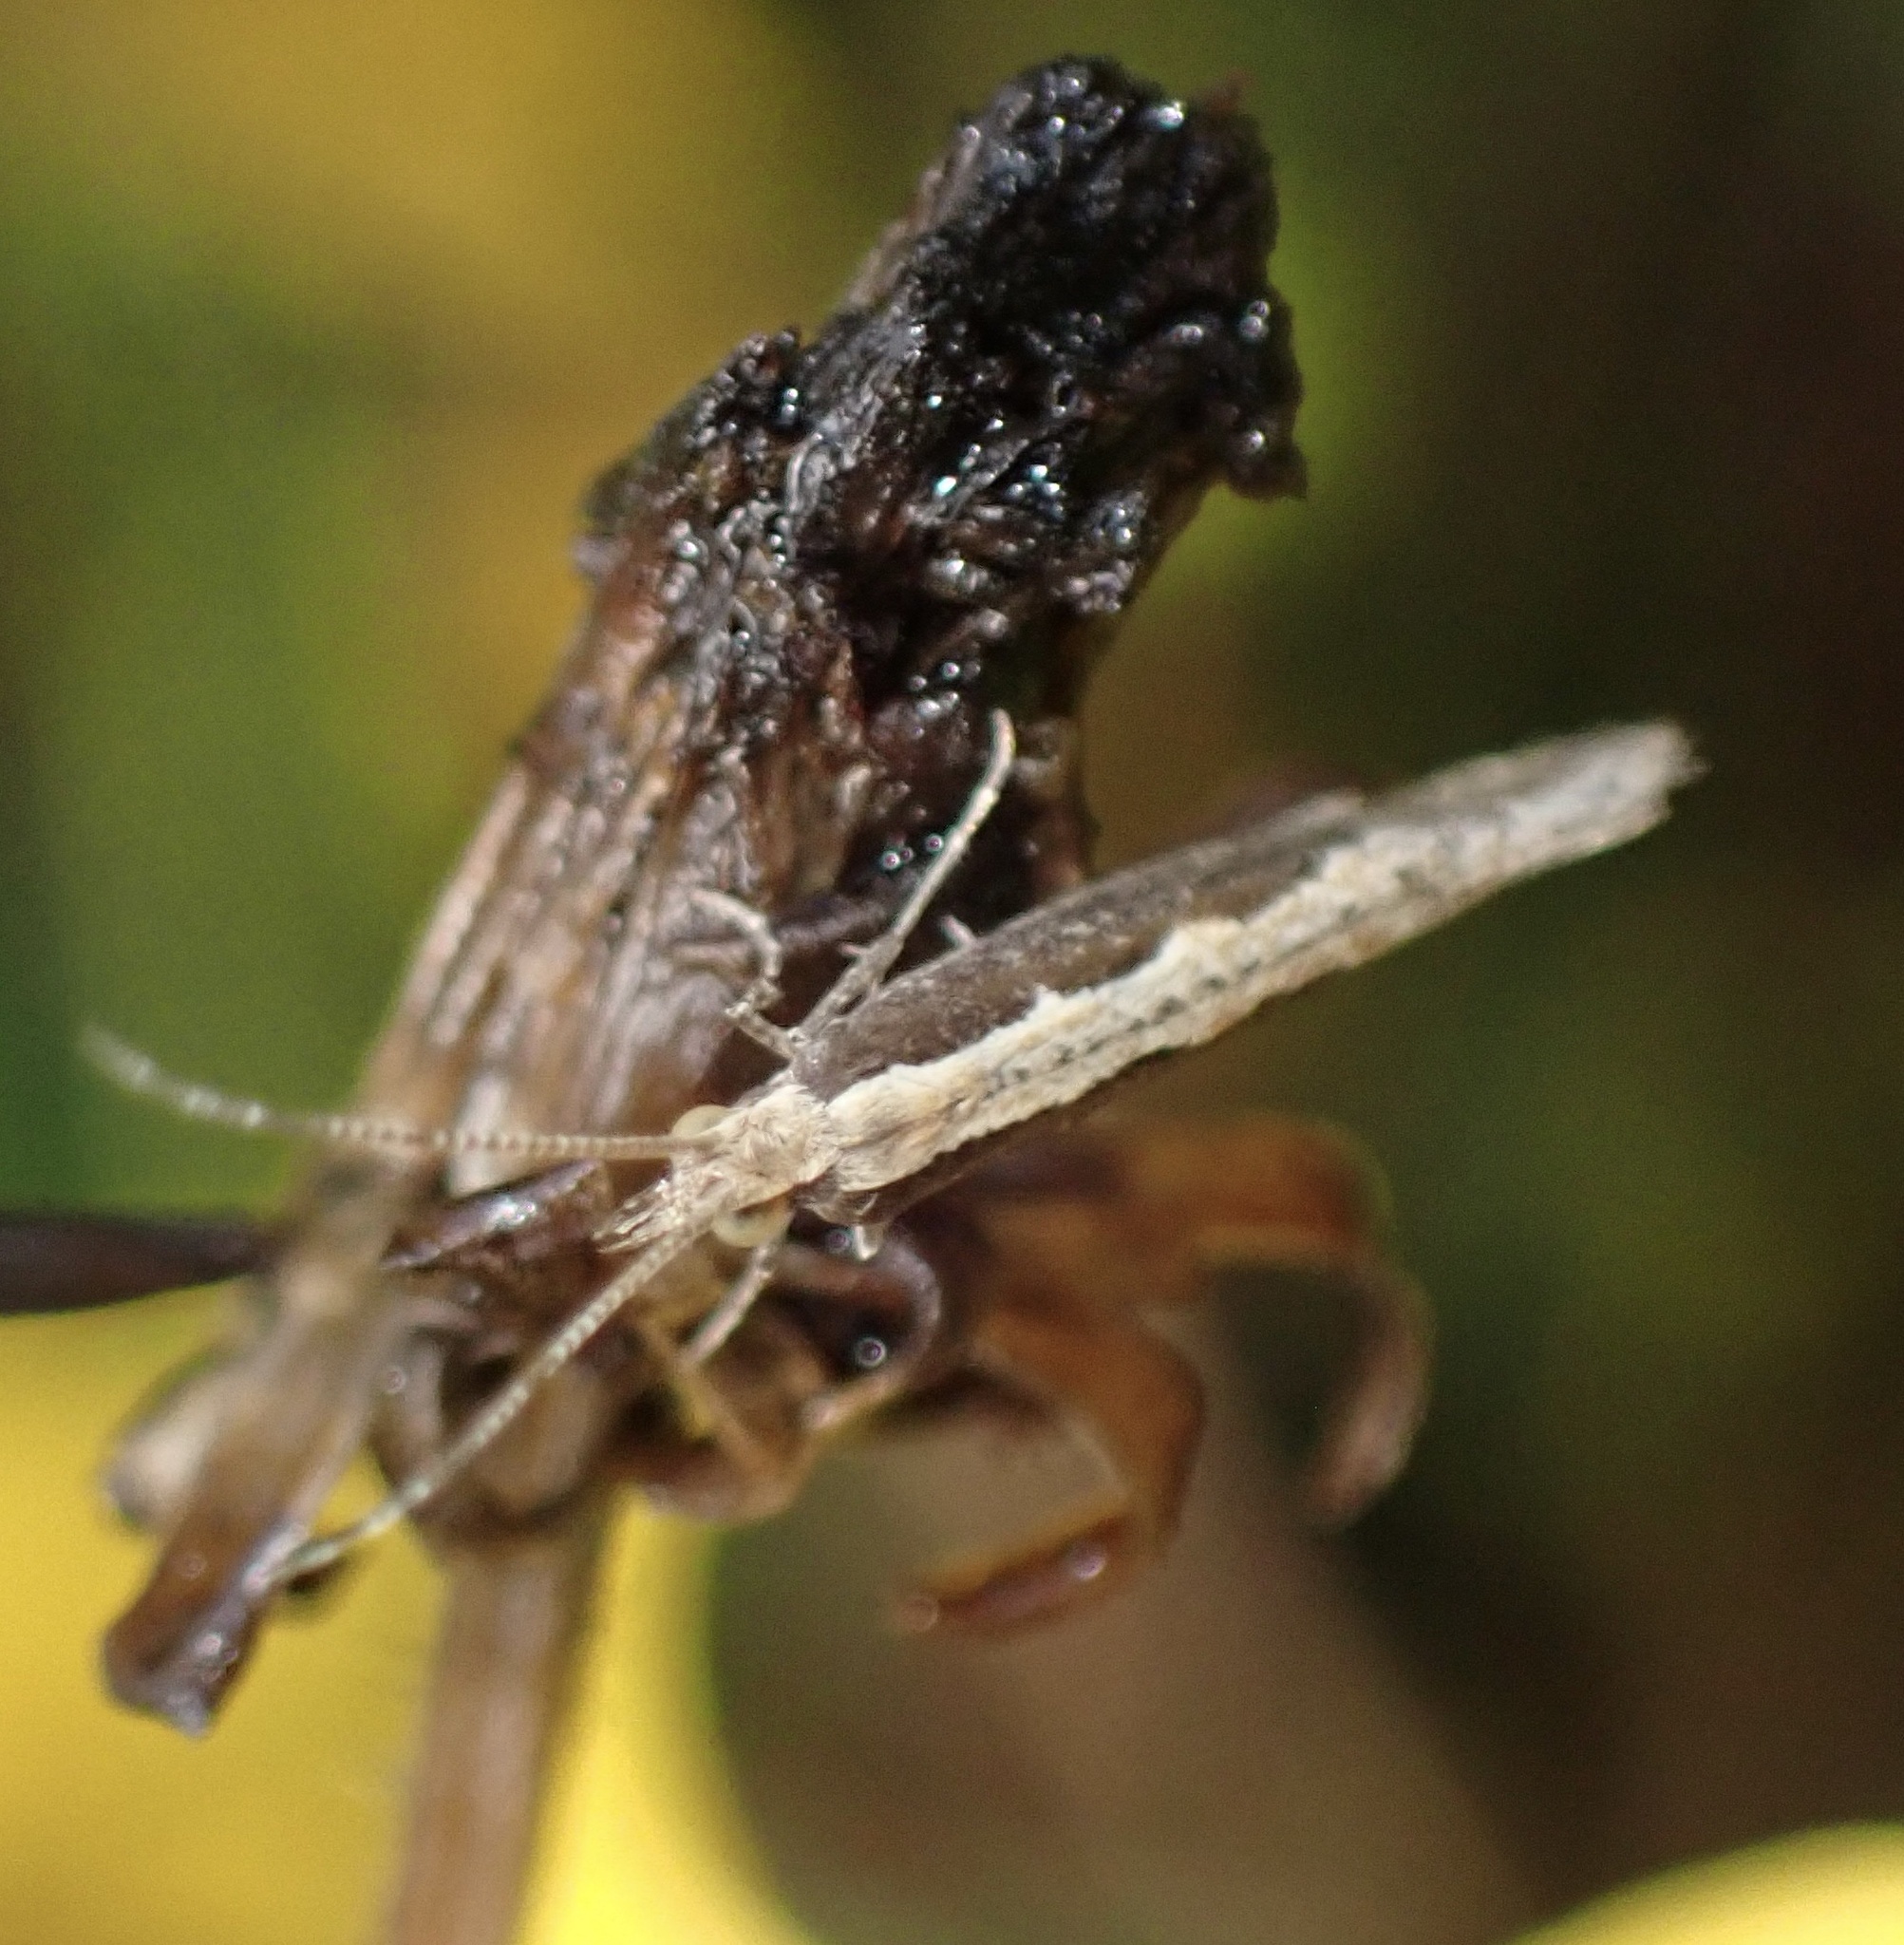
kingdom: Animalia
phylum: Arthropoda
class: Insecta
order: Lepidoptera
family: Plutellidae
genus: Plutella
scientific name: Plutella xylostella
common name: Diamond-back moth
